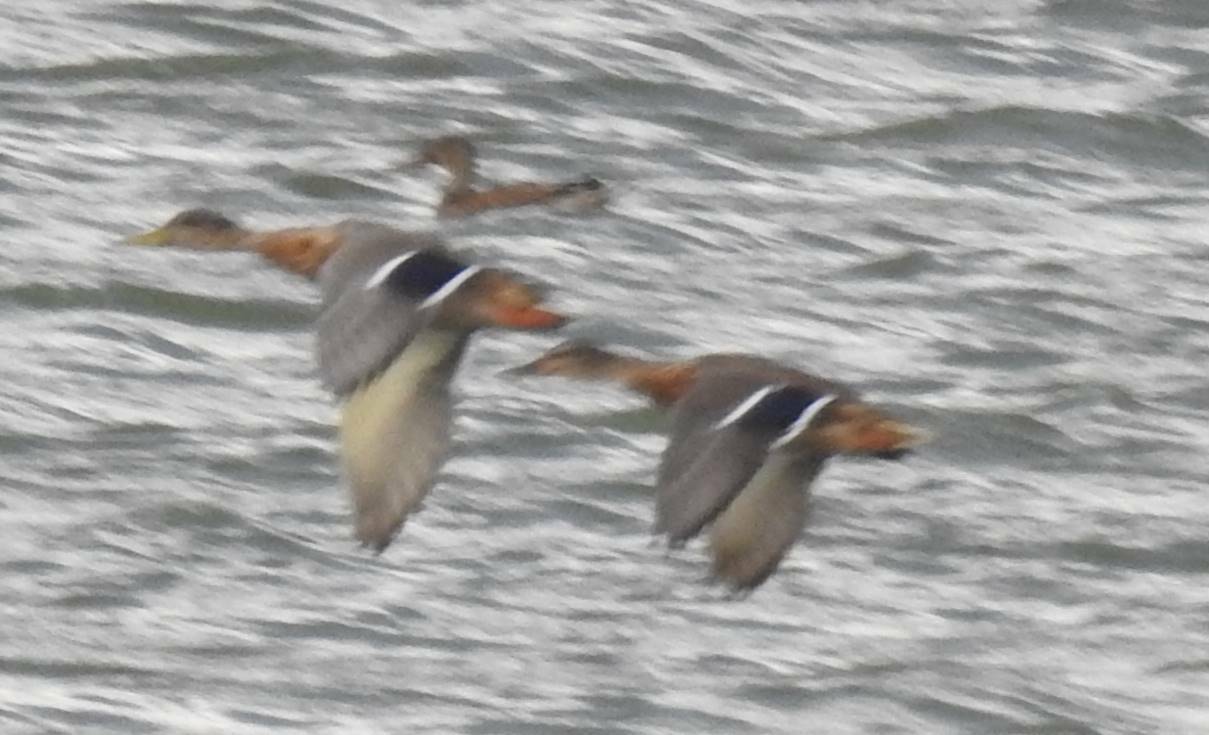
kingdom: Animalia
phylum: Chordata
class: Aves
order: Anseriformes
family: Anatidae
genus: Anas
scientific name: Anas platyrhynchos
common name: Mallard
